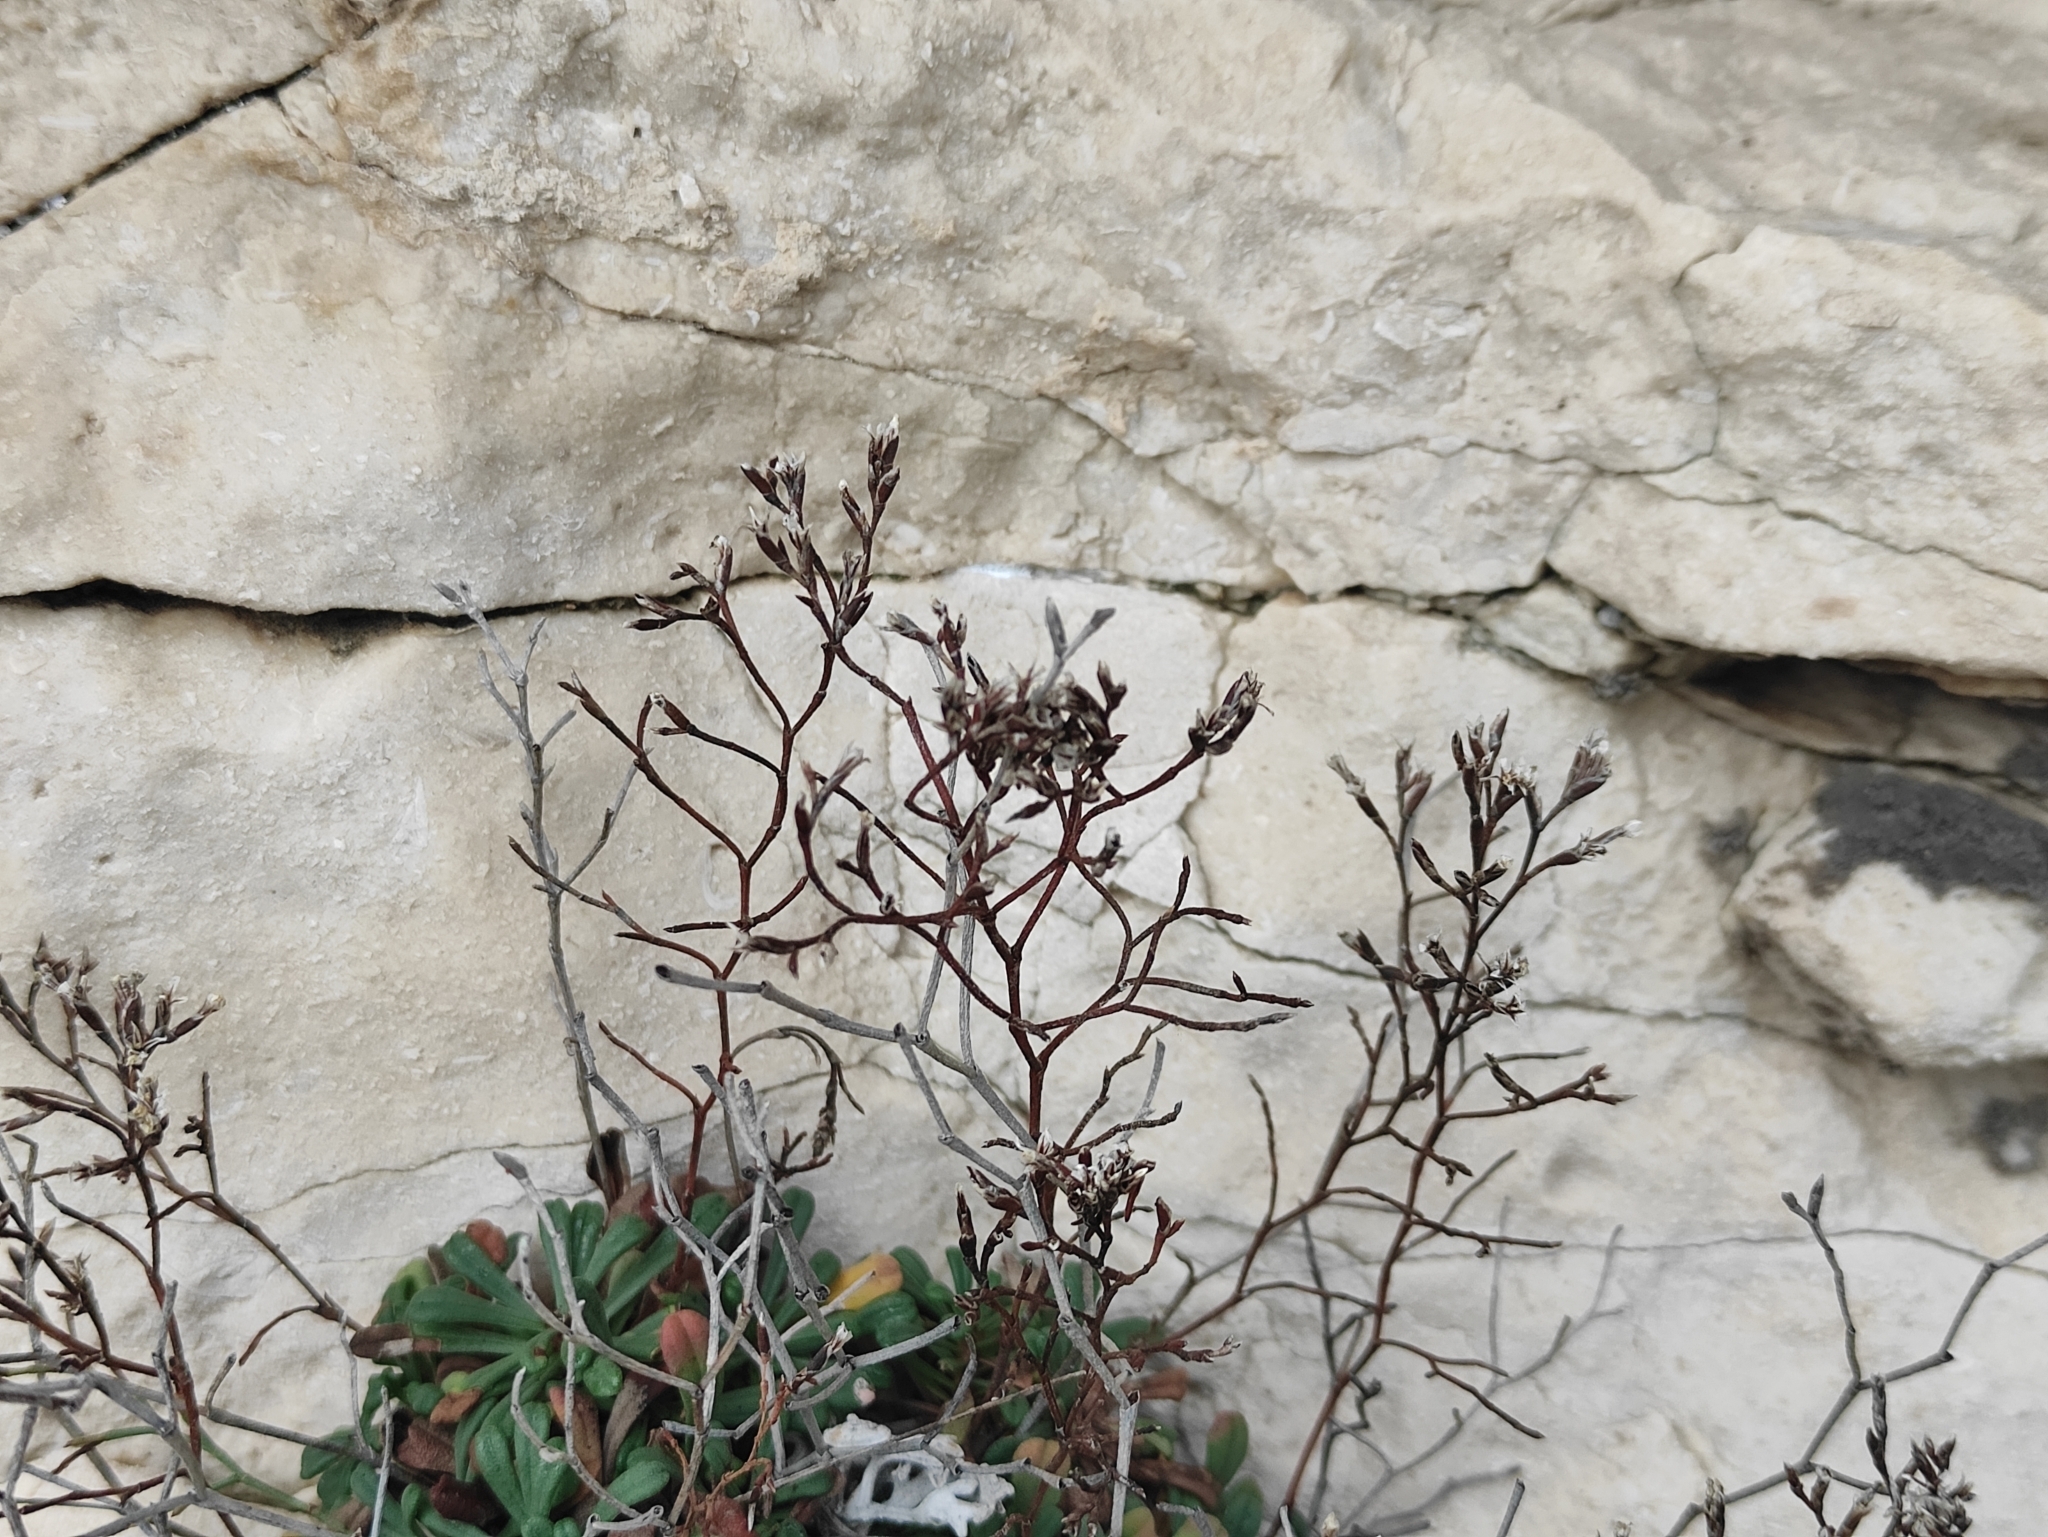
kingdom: Plantae
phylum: Tracheophyta
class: Magnoliopsida
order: Caryophyllales
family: Plumbaginaceae
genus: Limonium
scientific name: Limonium pseudominutum
